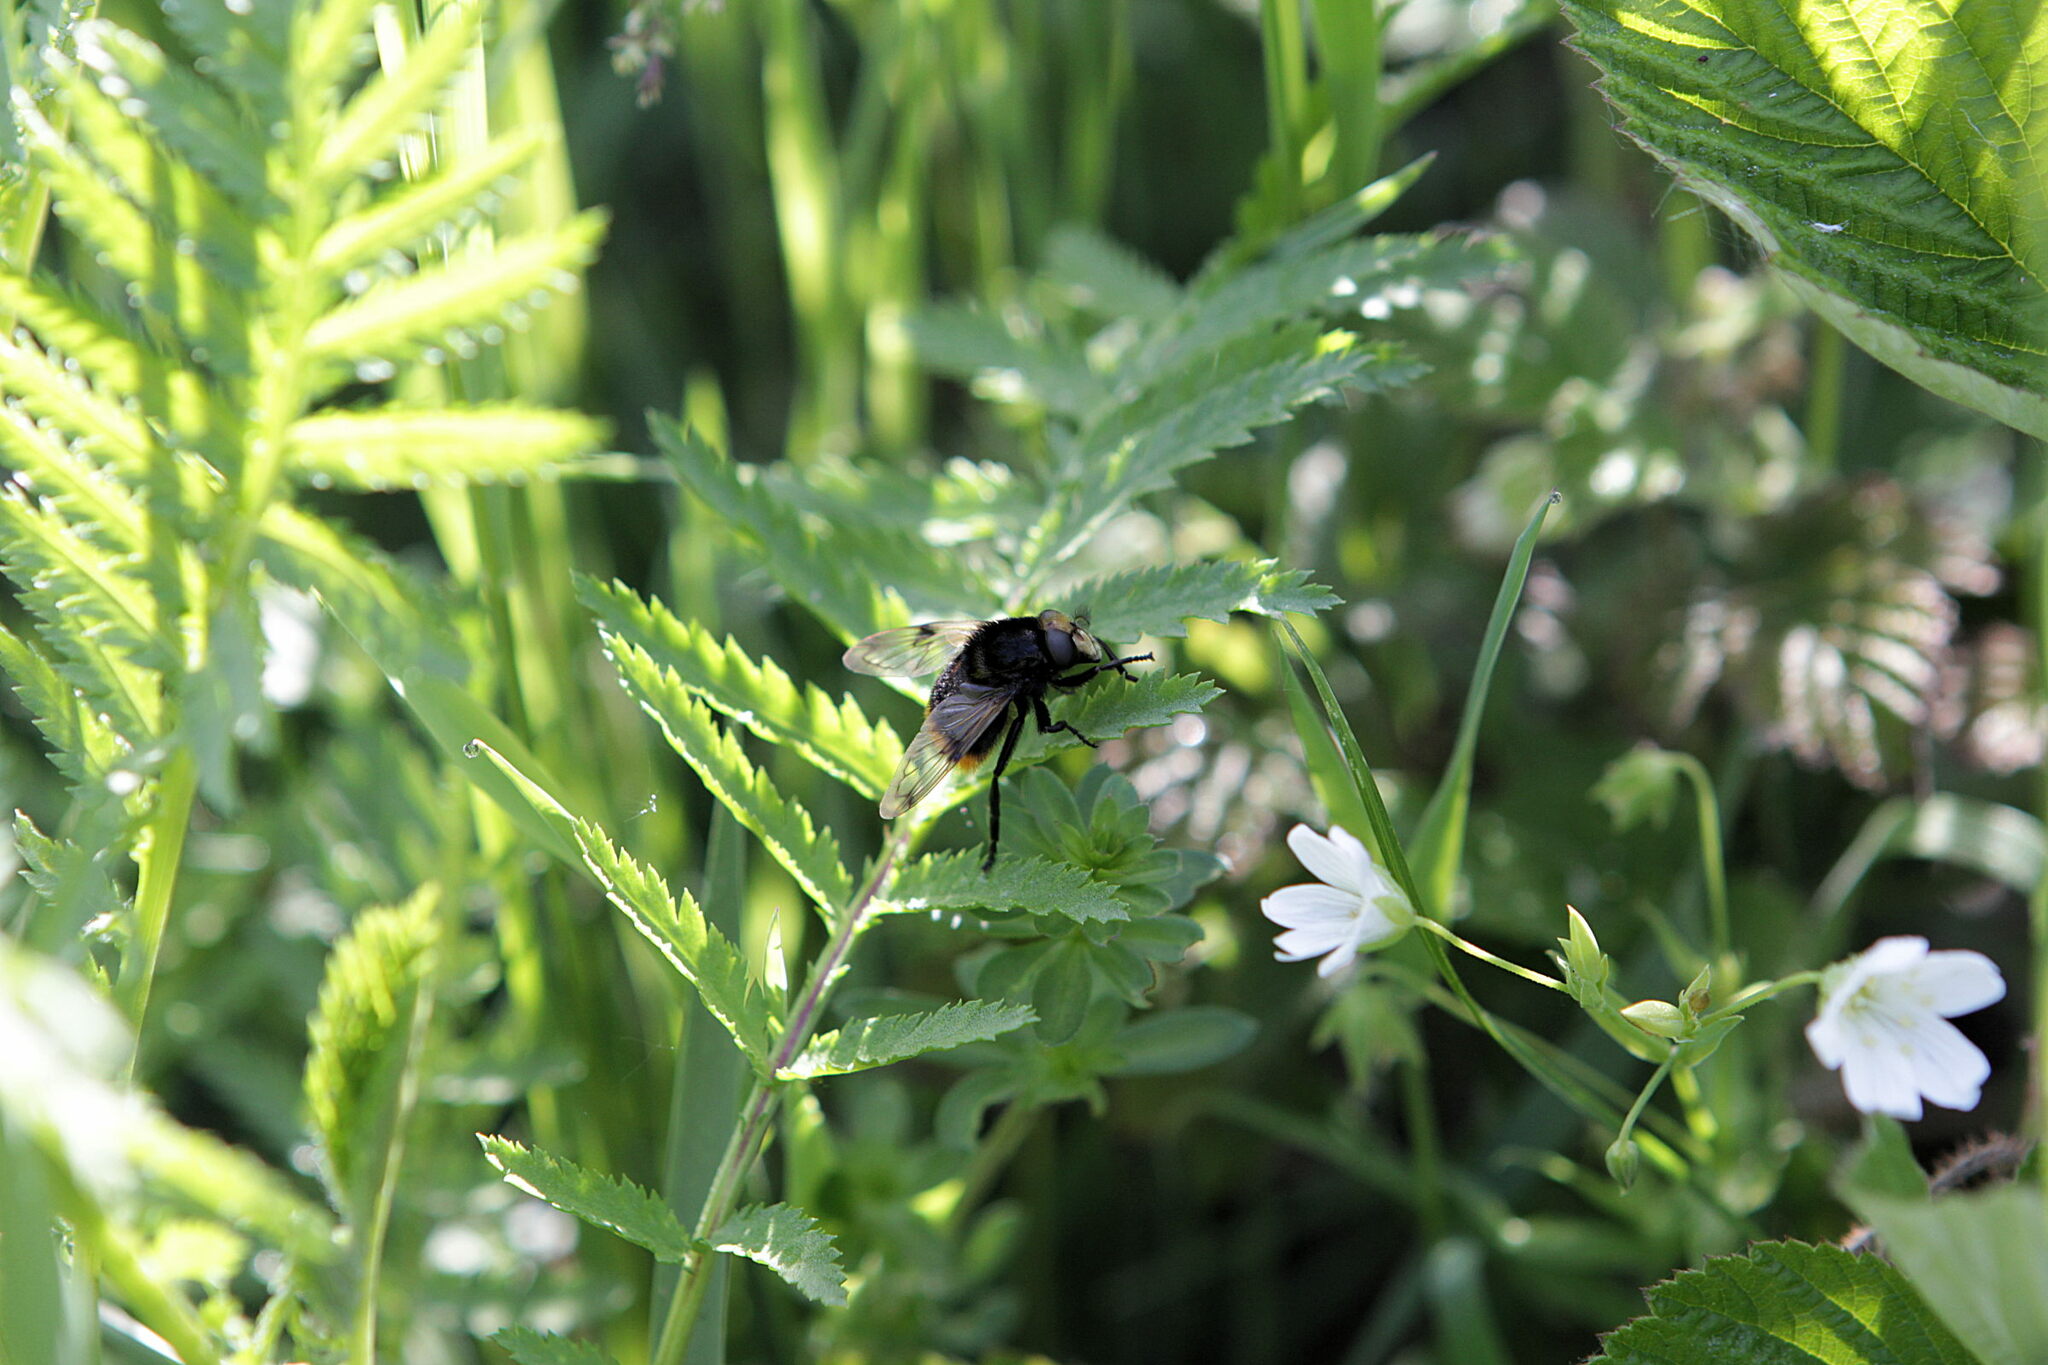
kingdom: Animalia
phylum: Arthropoda
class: Insecta
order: Diptera
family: Syrphidae
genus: Volucella
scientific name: Volucella bombylans
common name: Bumble bee hover fly
